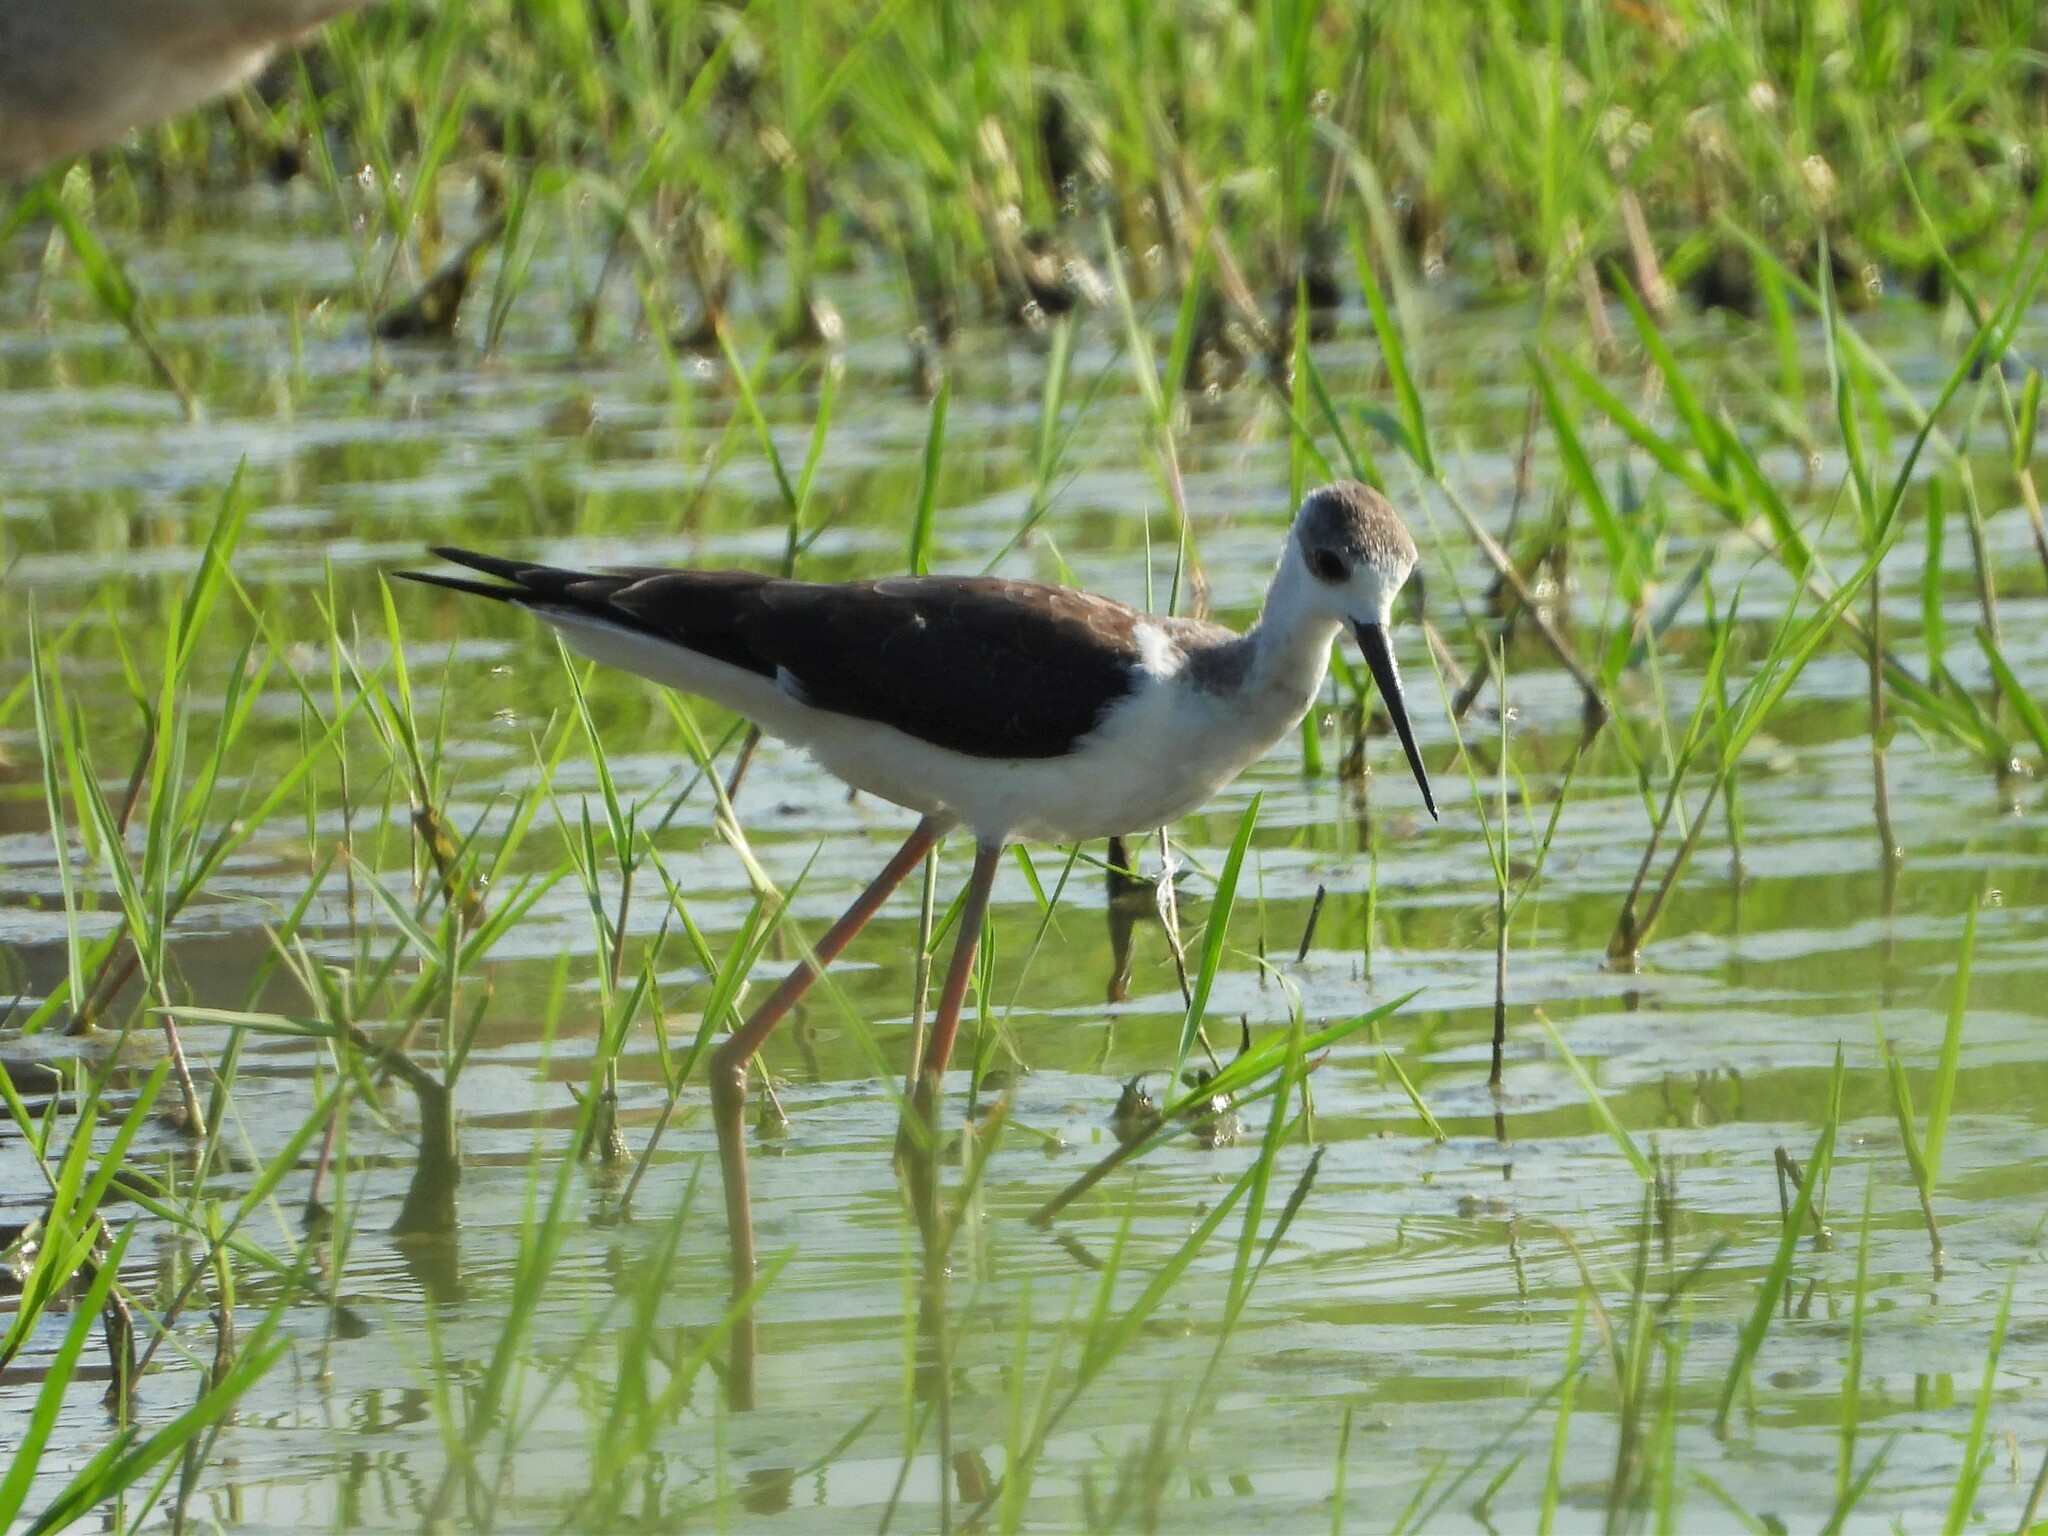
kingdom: Animalia
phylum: Chordata
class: Aves
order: Charadriiformes
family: Recurvirostridae
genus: Himantopus
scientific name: Himantopus himantopus
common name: Black-winged stilt
